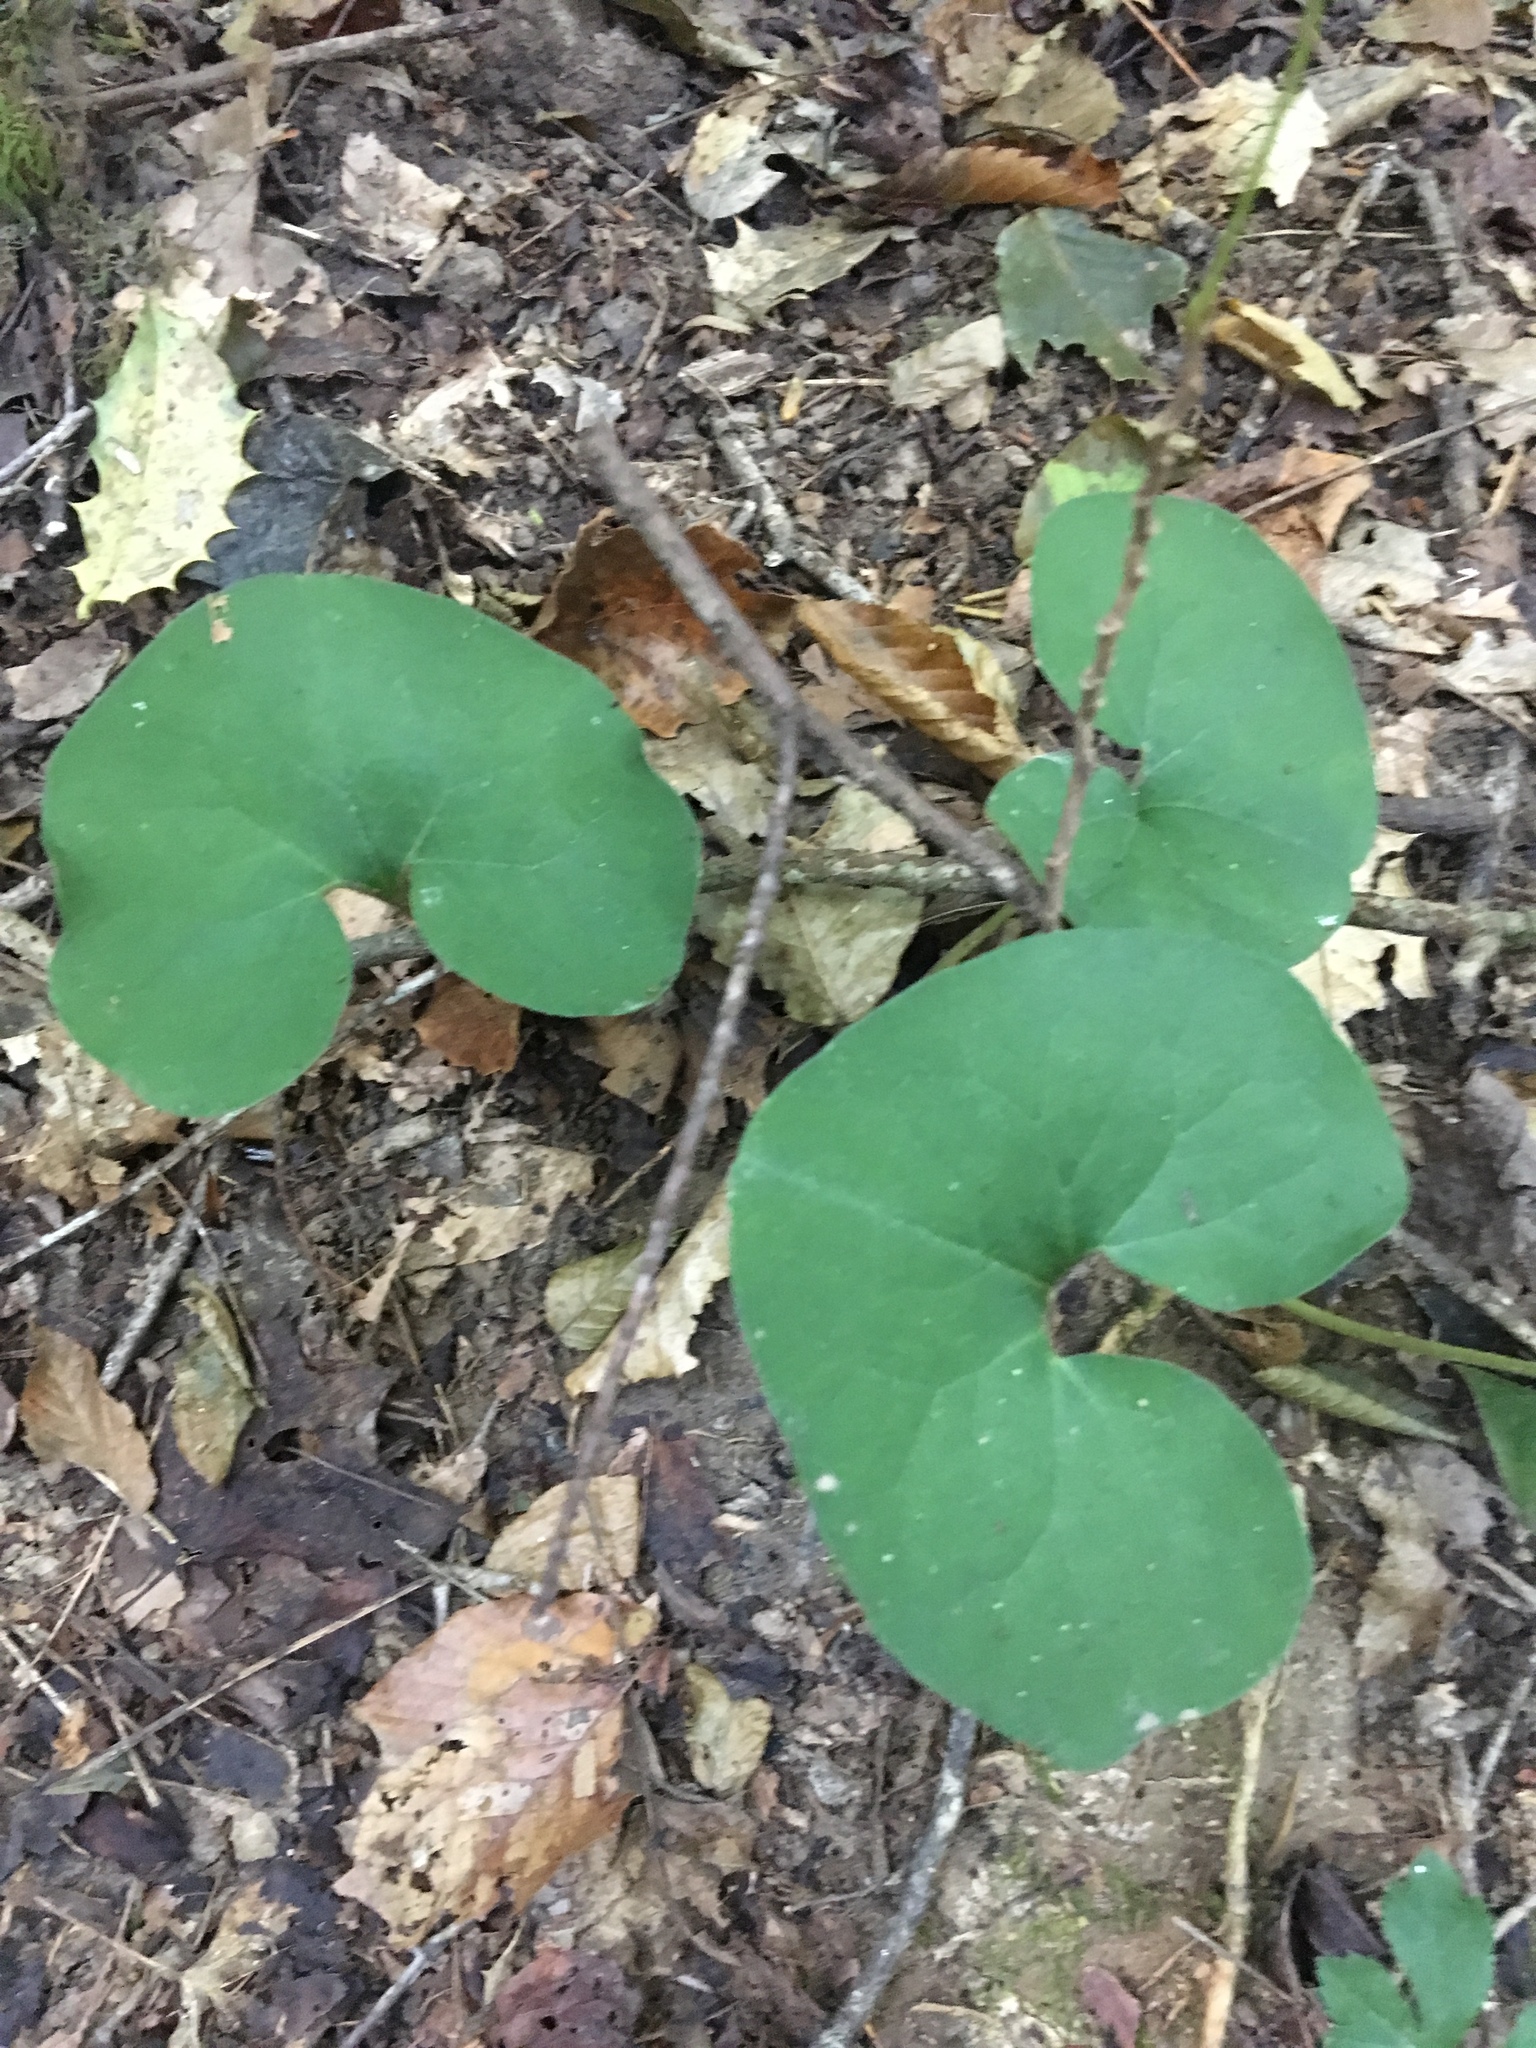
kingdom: Plantae
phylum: Tracheophyta
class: Magnoliopsida
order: Piperales
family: Aristolochiaceae
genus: Asarum
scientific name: Asarum canadense
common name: Wild ginger
